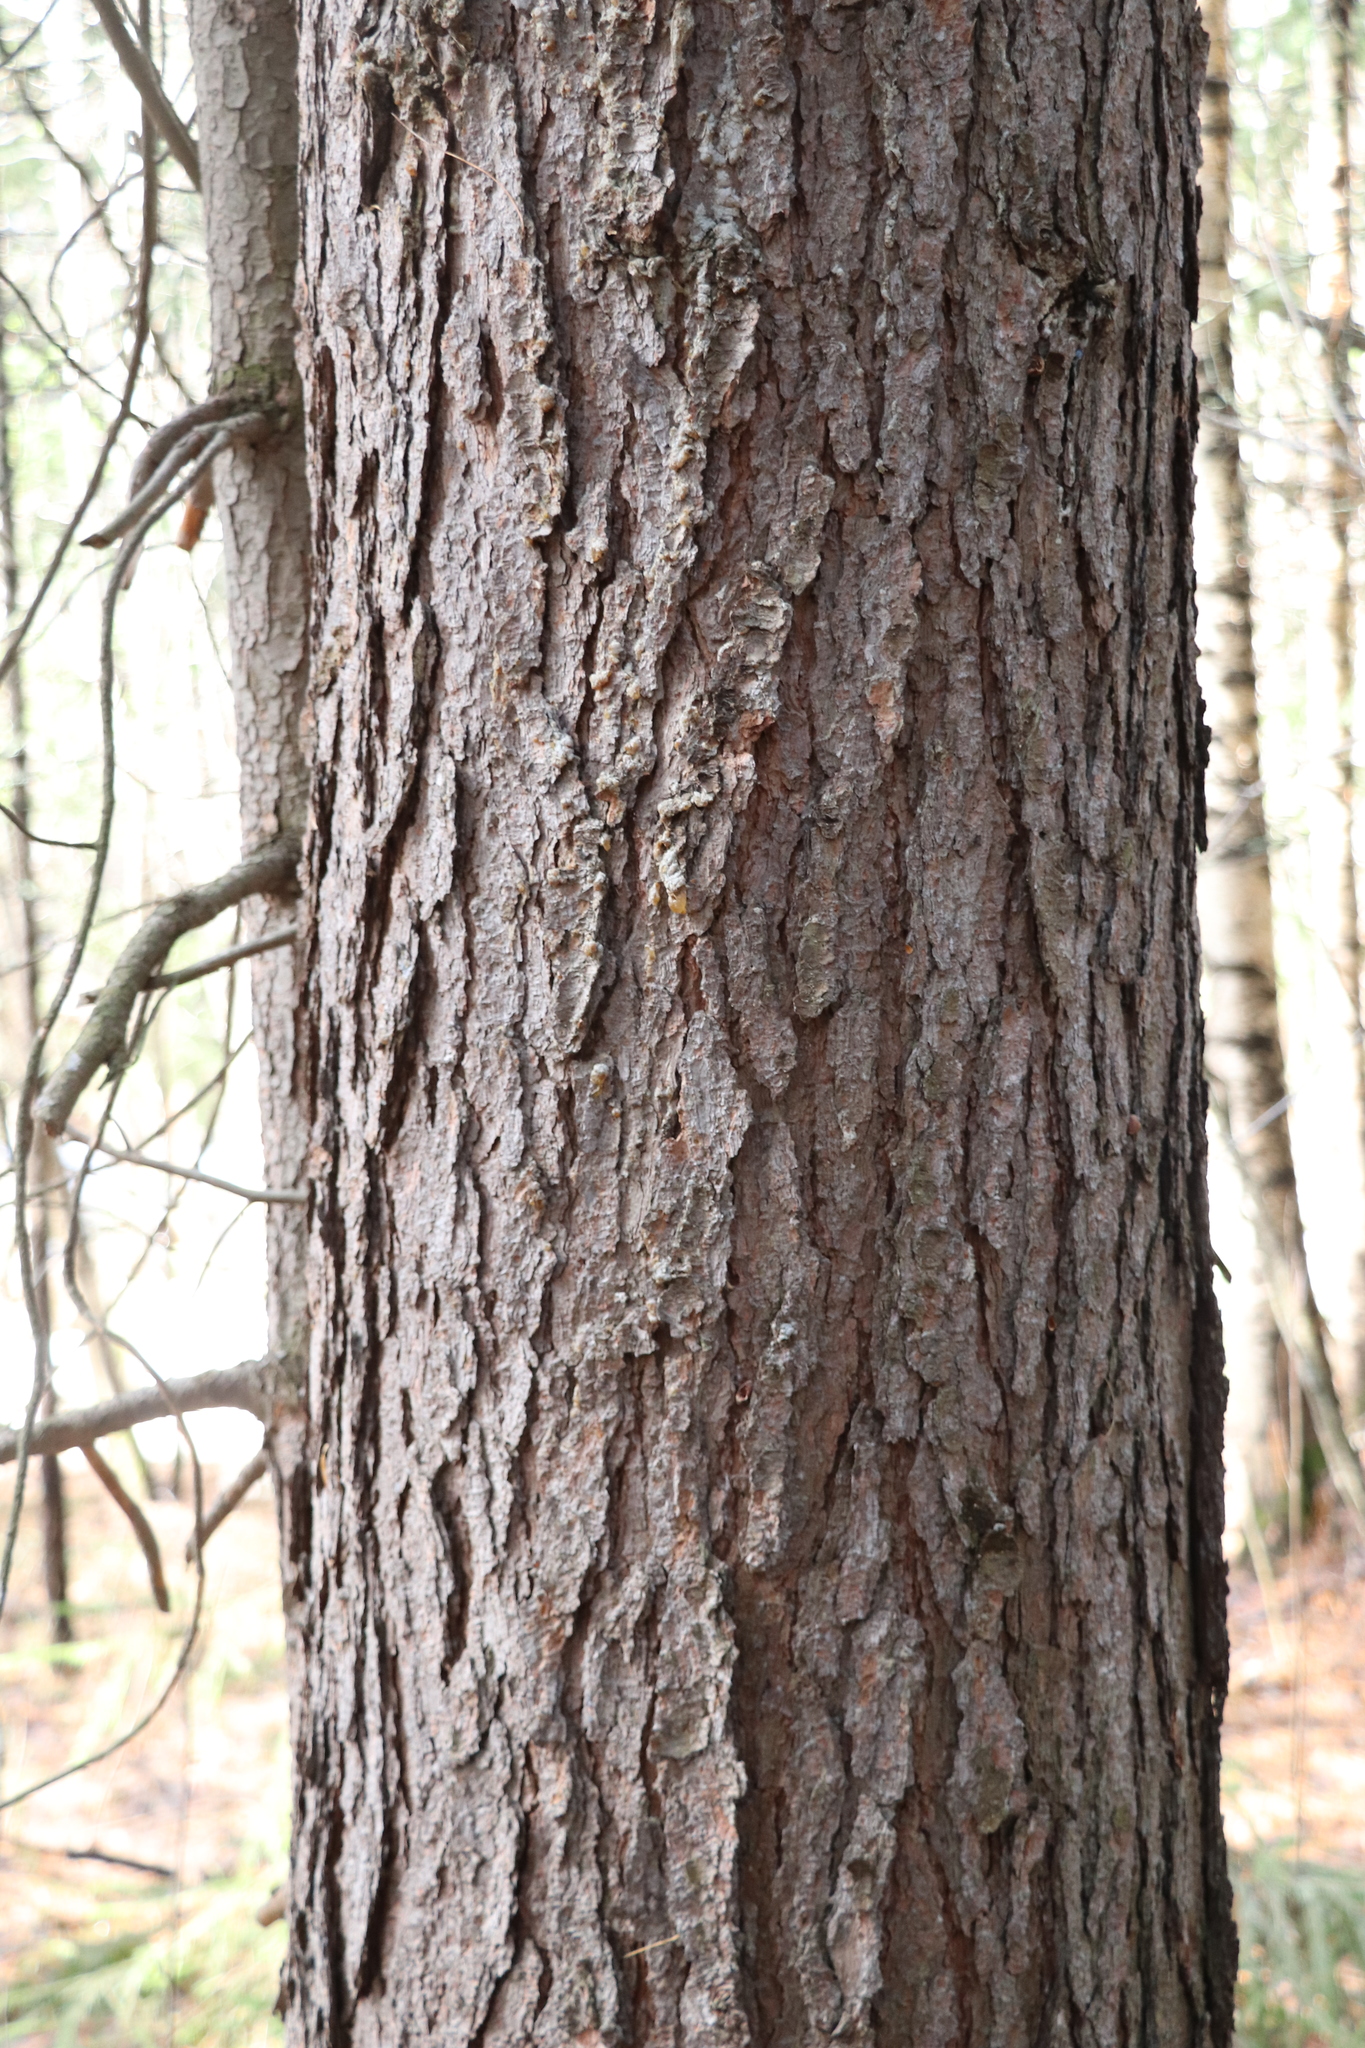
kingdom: Plantae
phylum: Tracheophyta
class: Pinopsida
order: Pinales
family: Pinaceae
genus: Pinus
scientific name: Pinus sibirica
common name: Siberian pine
